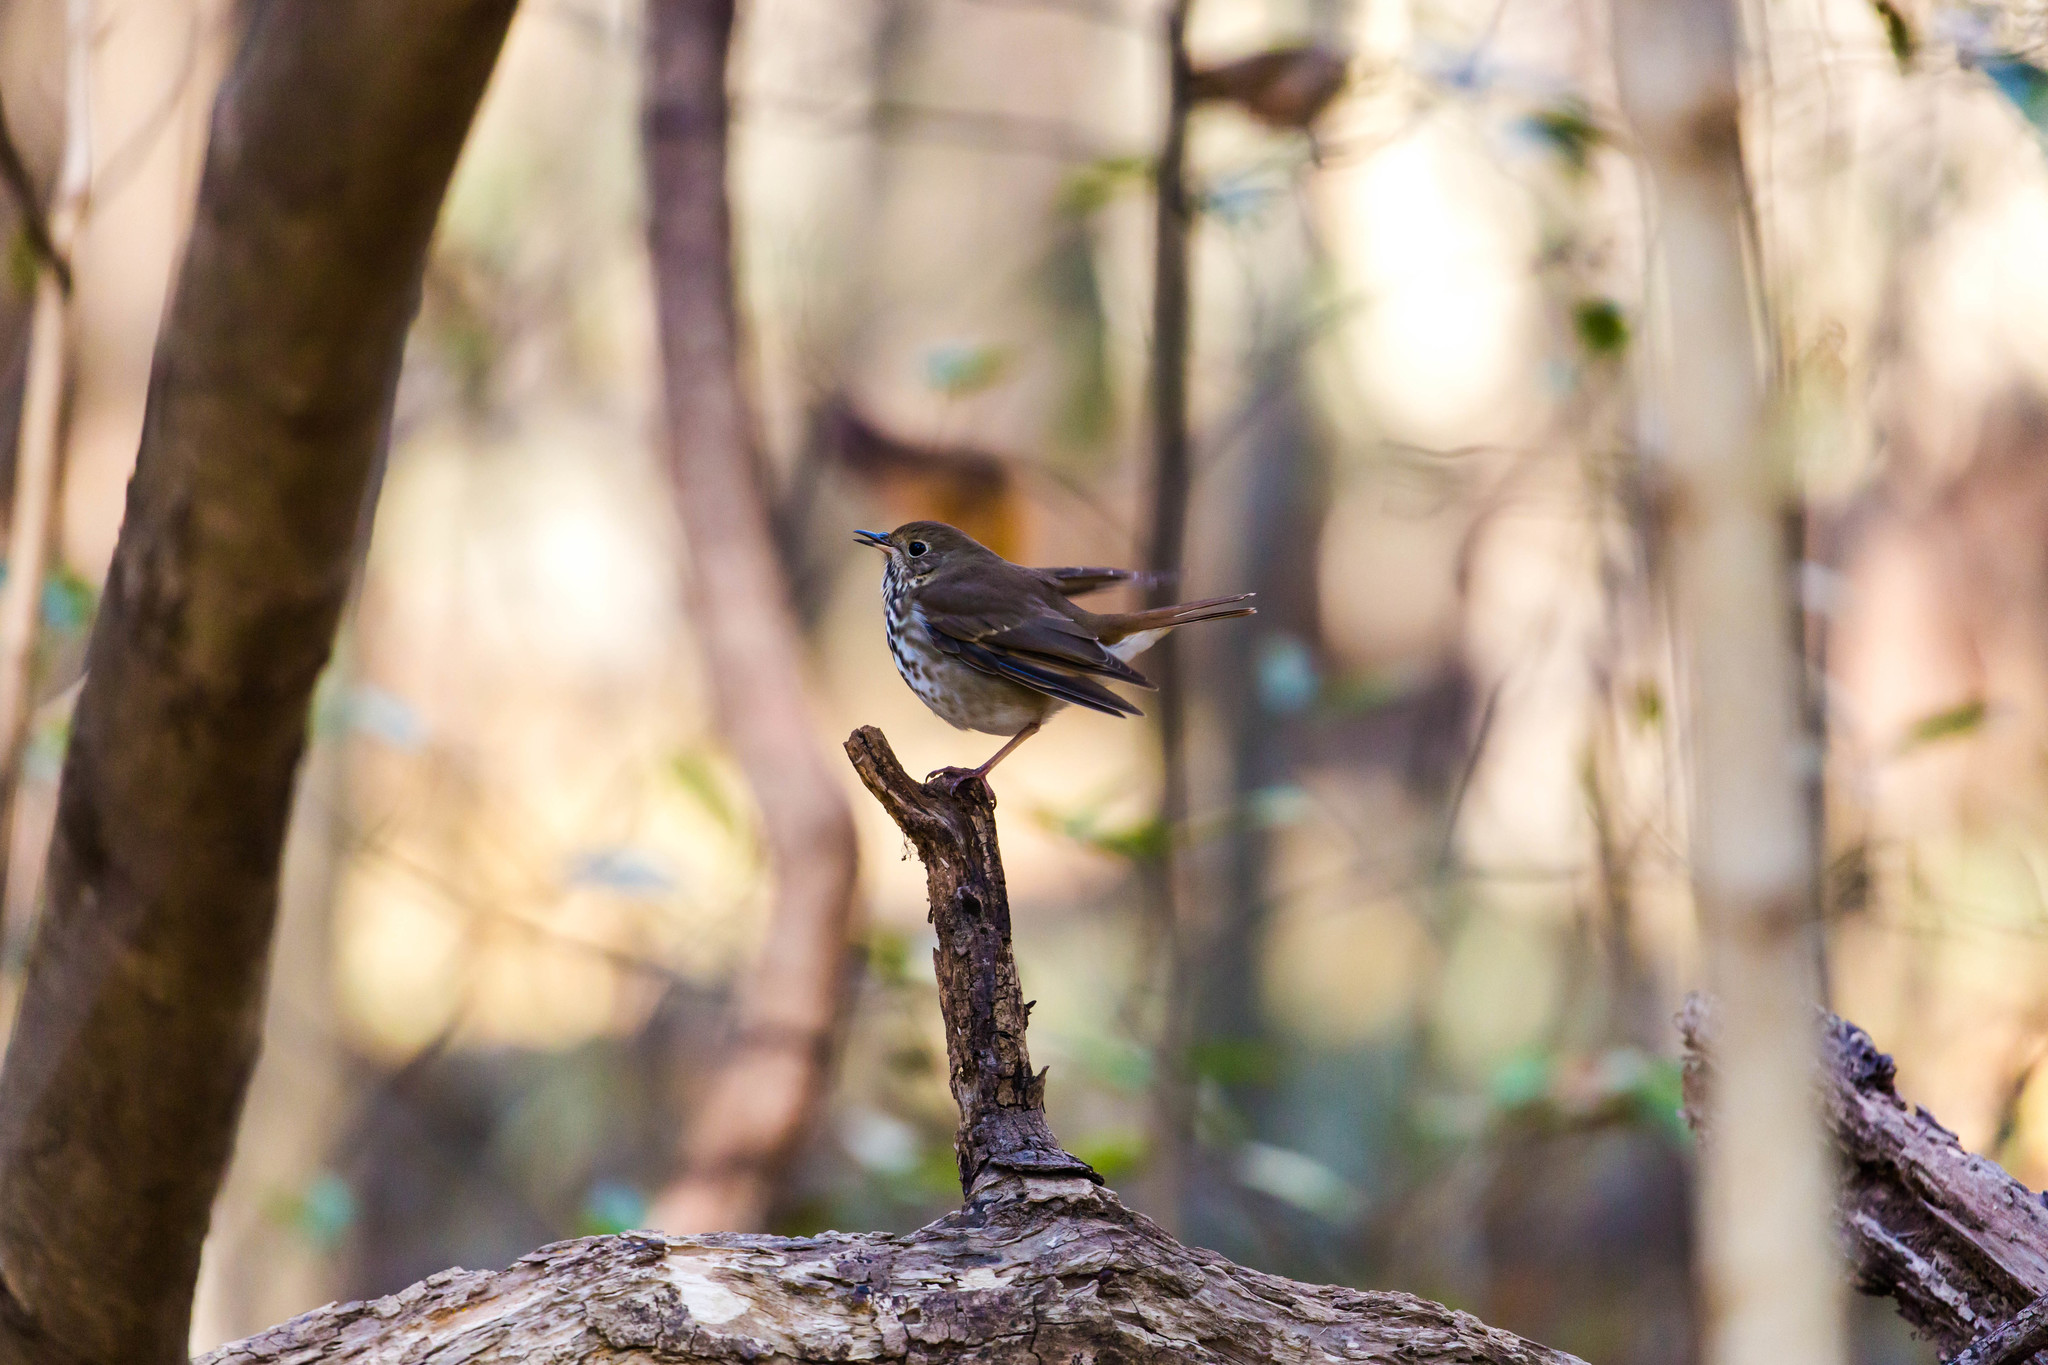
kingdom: Animalia
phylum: Chordata
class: Aves
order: Passeriformes
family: Turdidae
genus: Catharus
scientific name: Catharus guttatus
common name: Hermit thrush
